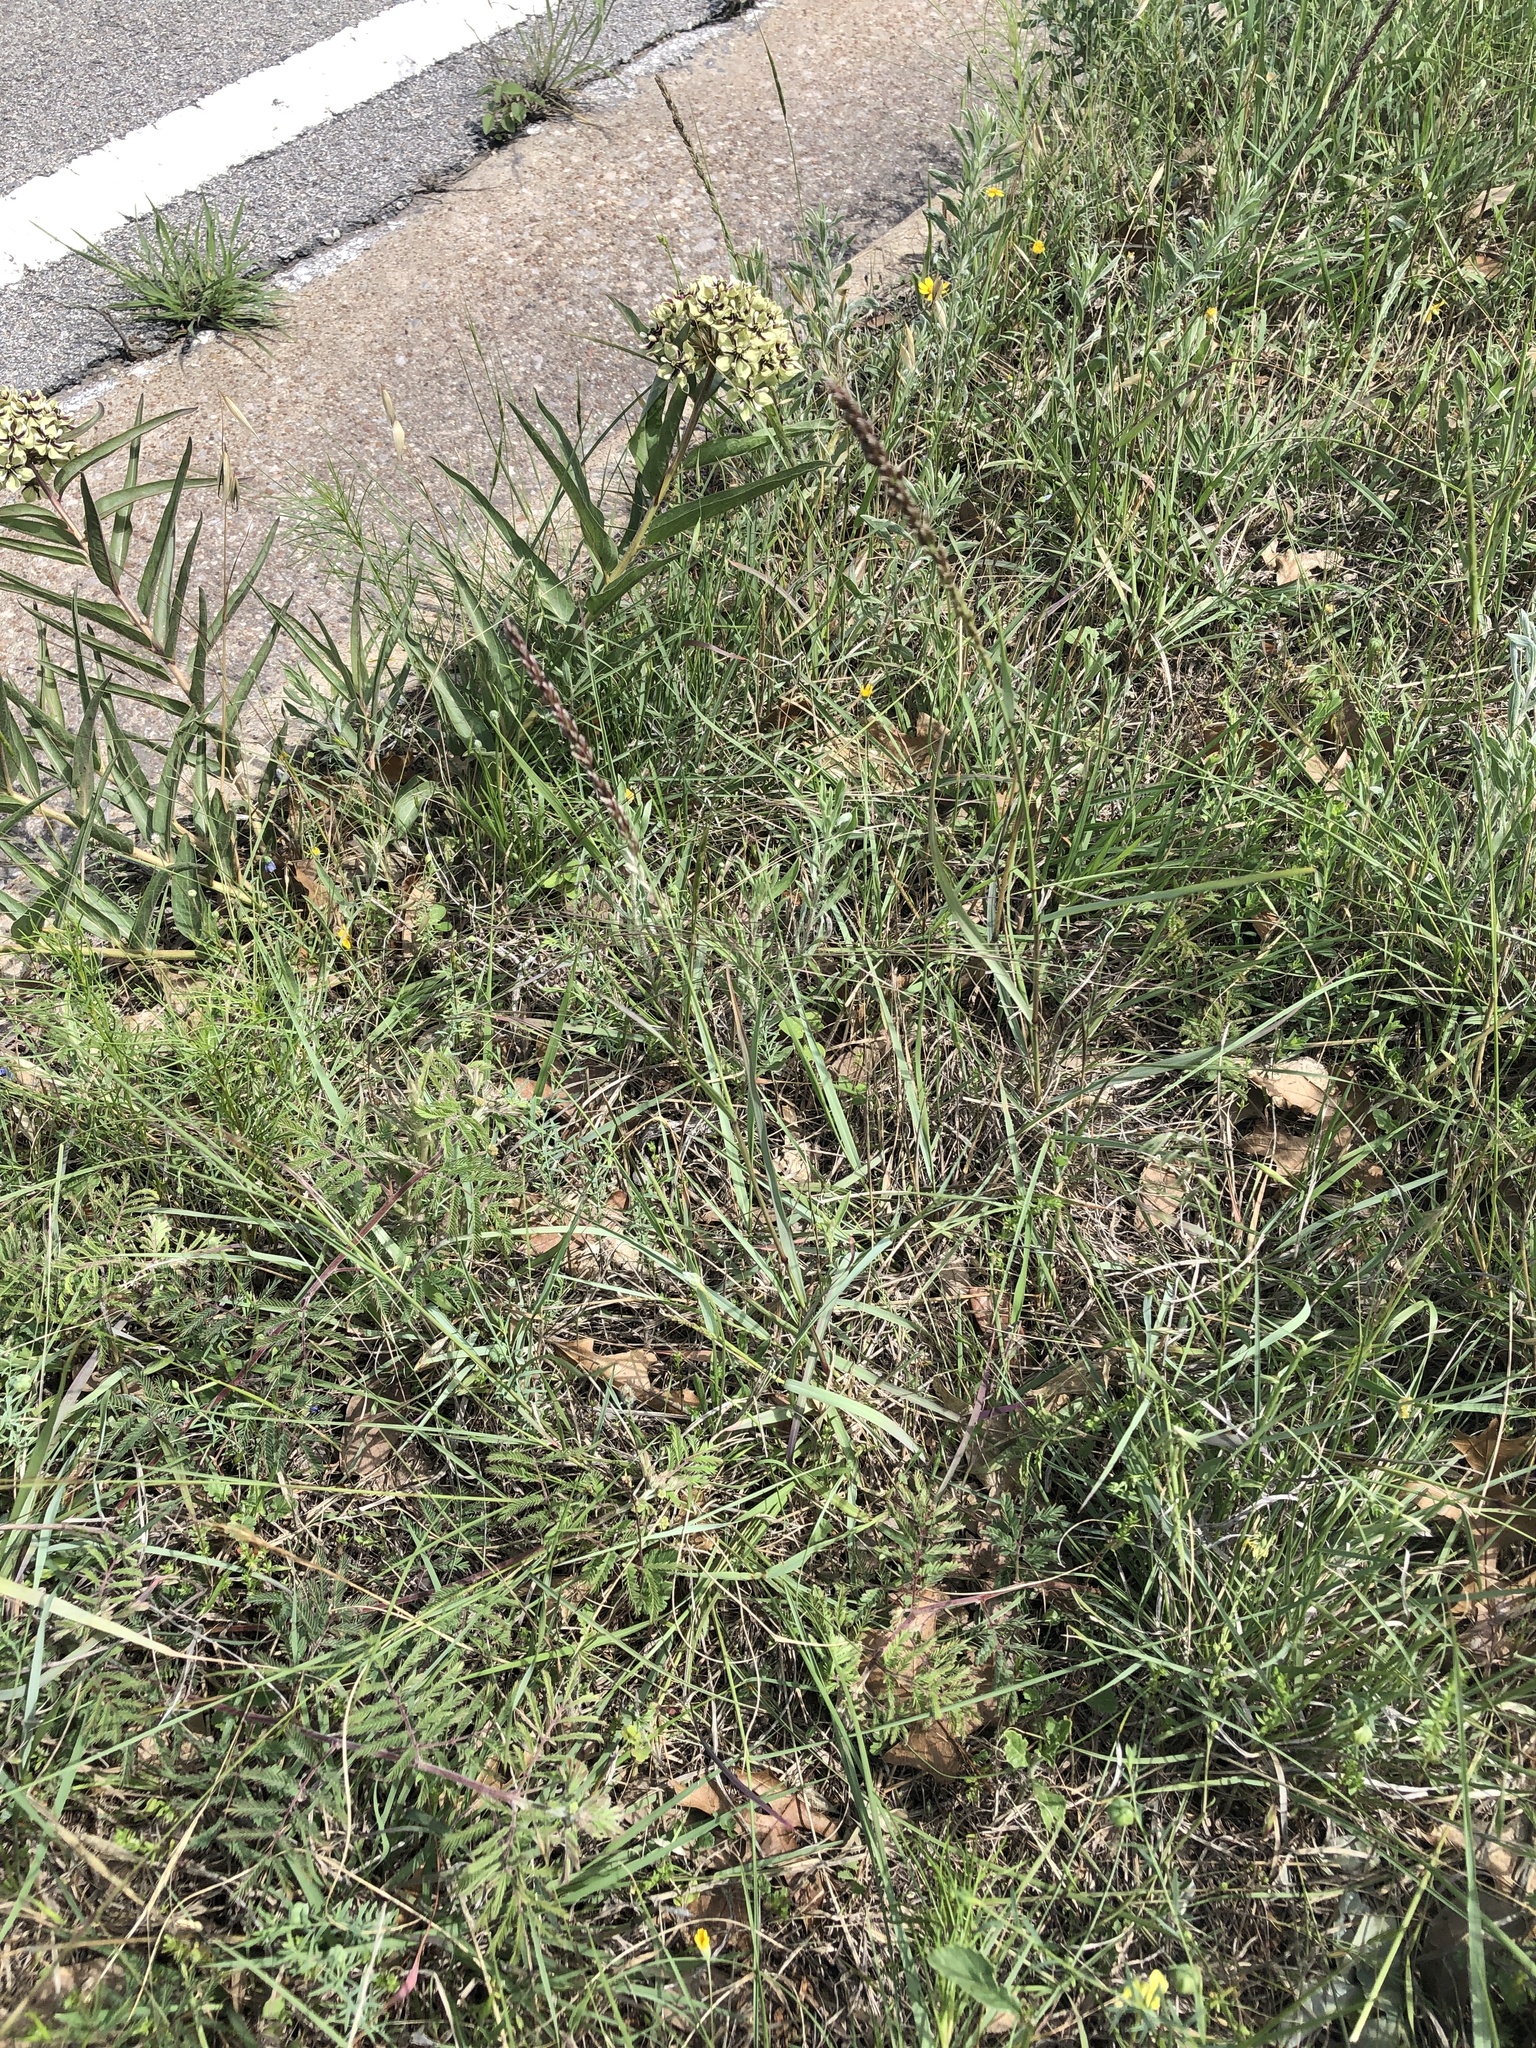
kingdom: Plantae
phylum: Tracheophyta
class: Liliopsida
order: Poales
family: Poaceae
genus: Tridens
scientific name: Tridens albescens
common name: White tridens
